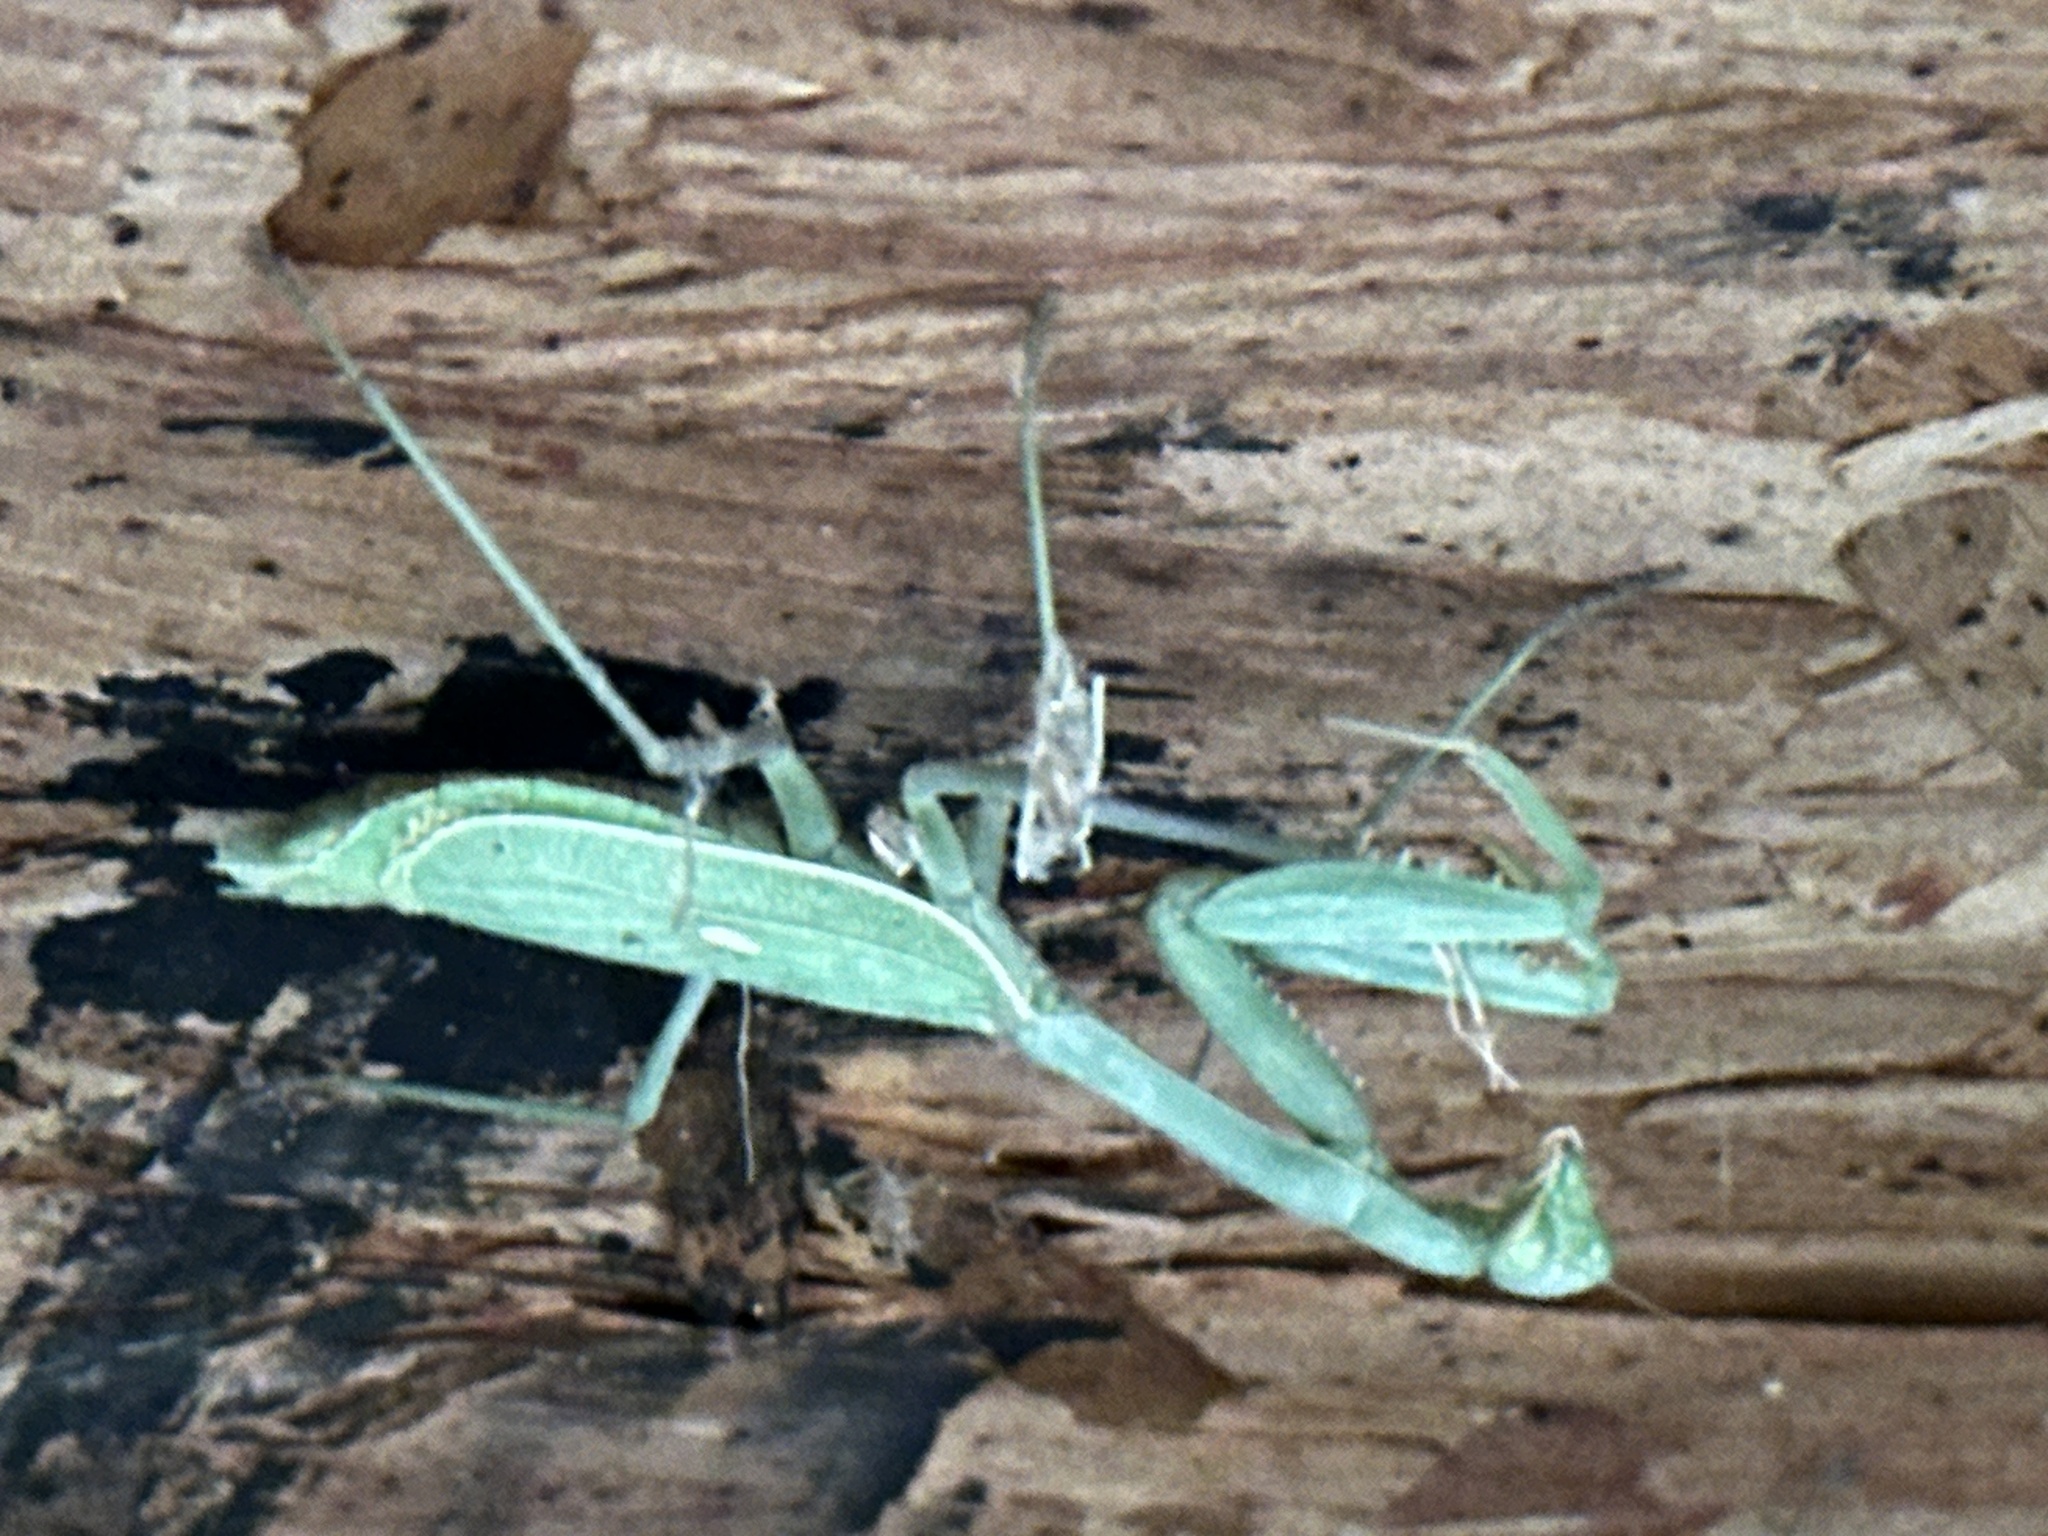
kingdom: Animalia
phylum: Arthropoda
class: Insecta
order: Mantodea
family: Mantidae
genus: Stagmomantis
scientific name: Stagmomantis limbata
